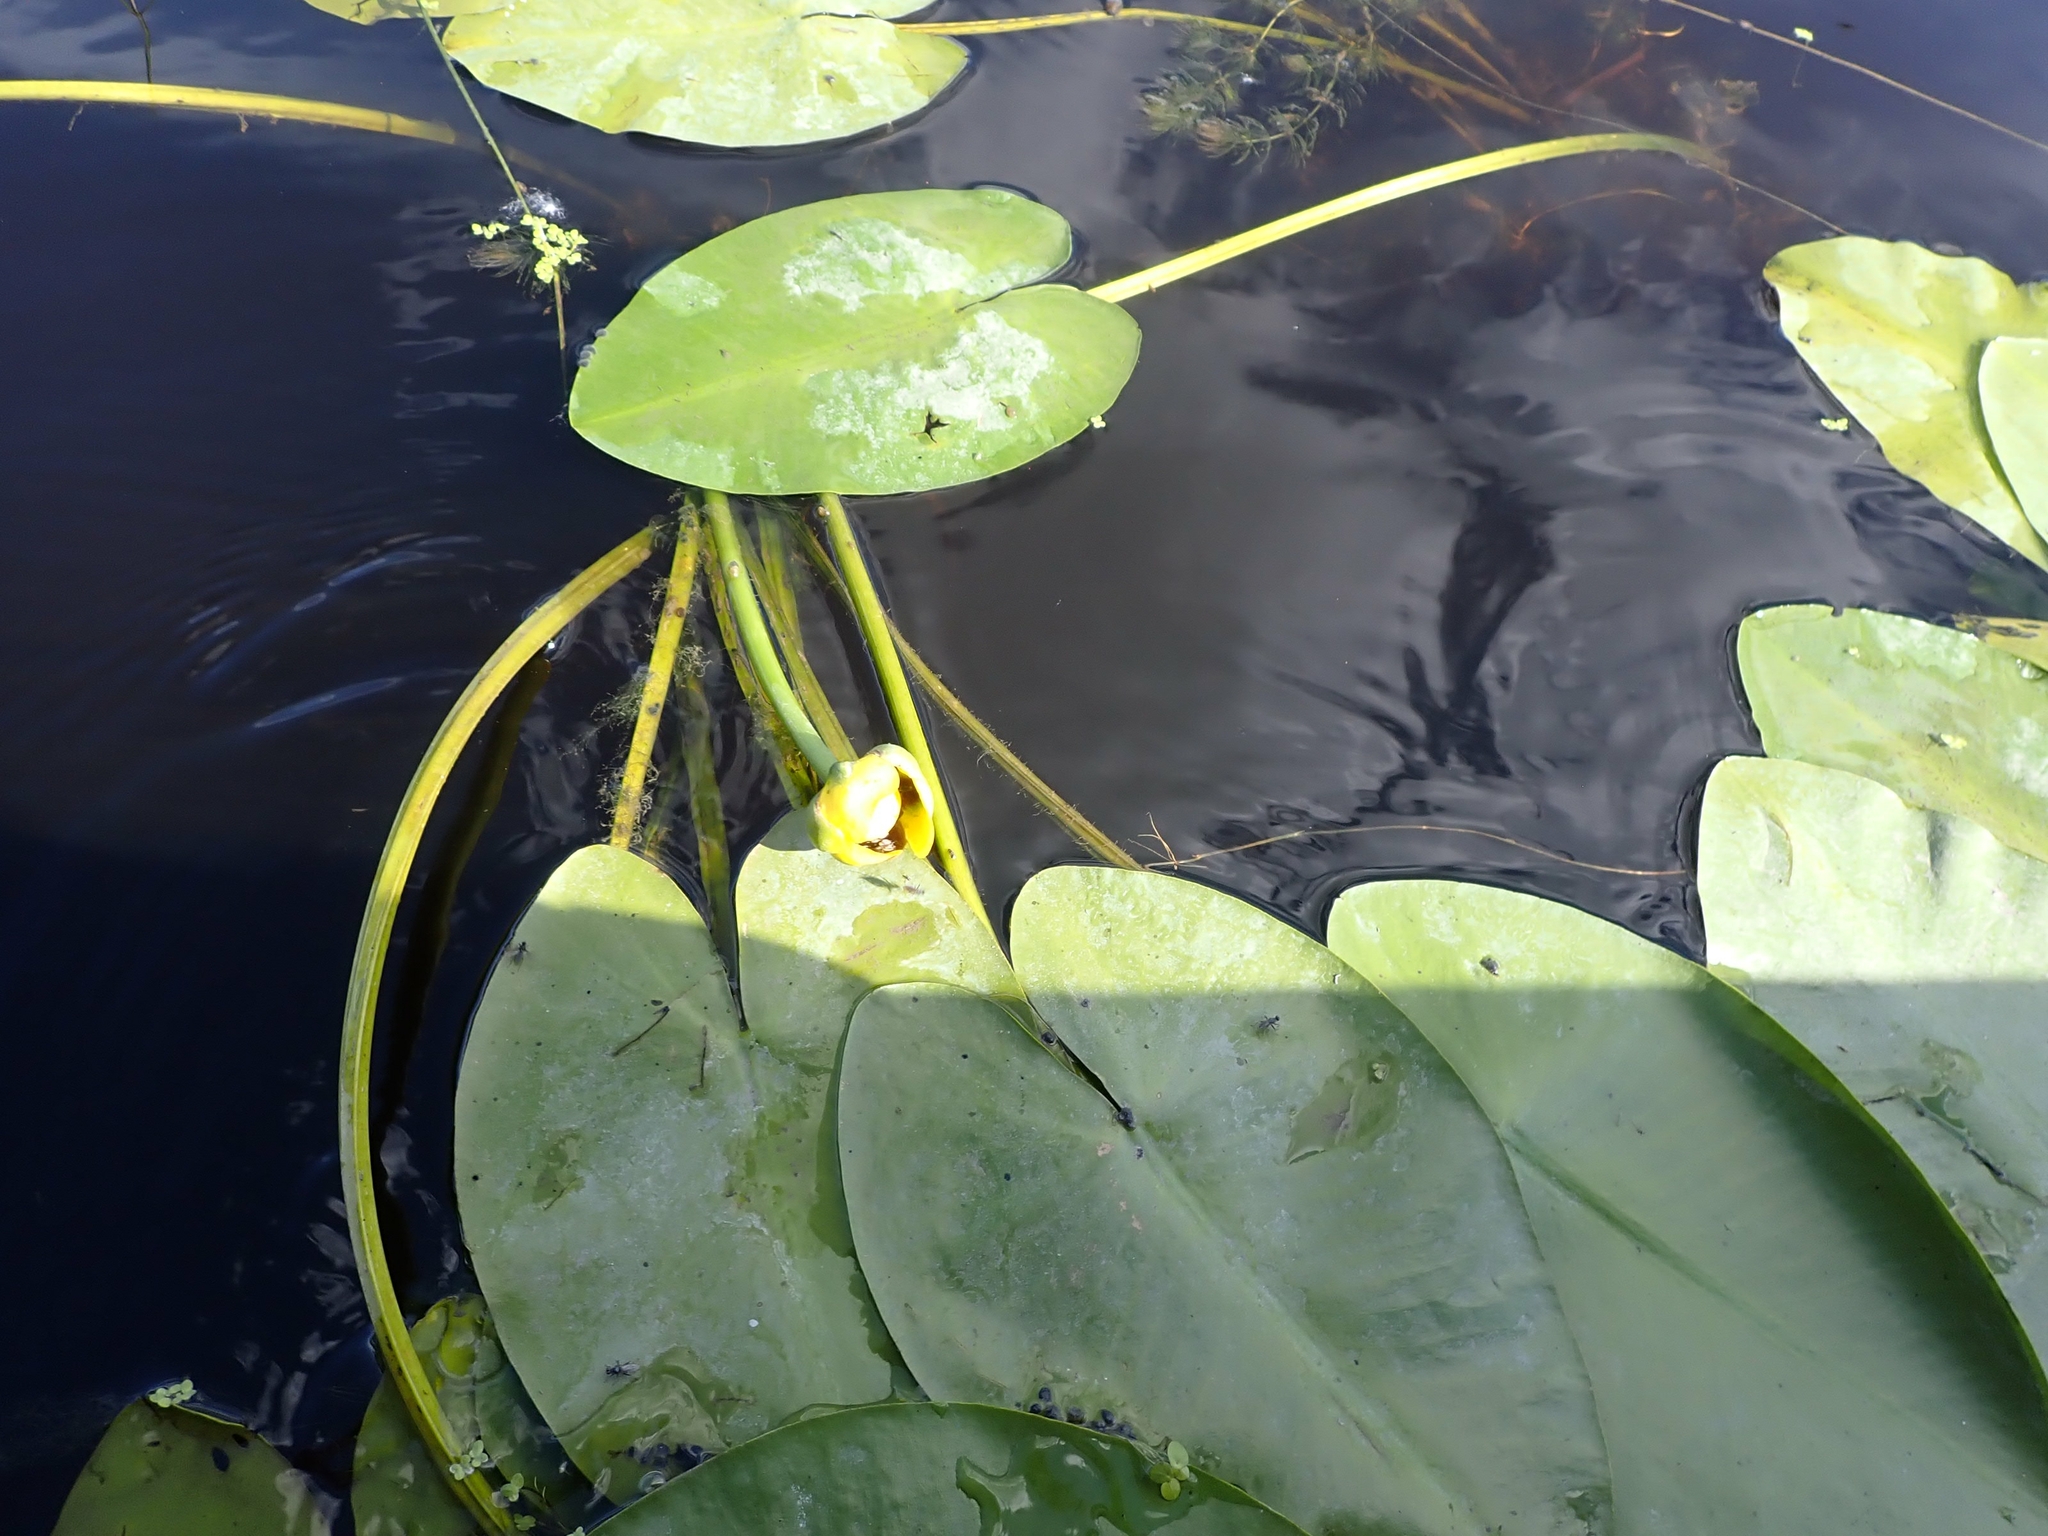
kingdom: Plantae
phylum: Tracheophyta
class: Magnoliopsida
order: Nymphaeales
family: Nymphaeaceae
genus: Nuphar
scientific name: Nuphar variegata
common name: Beaver-root
